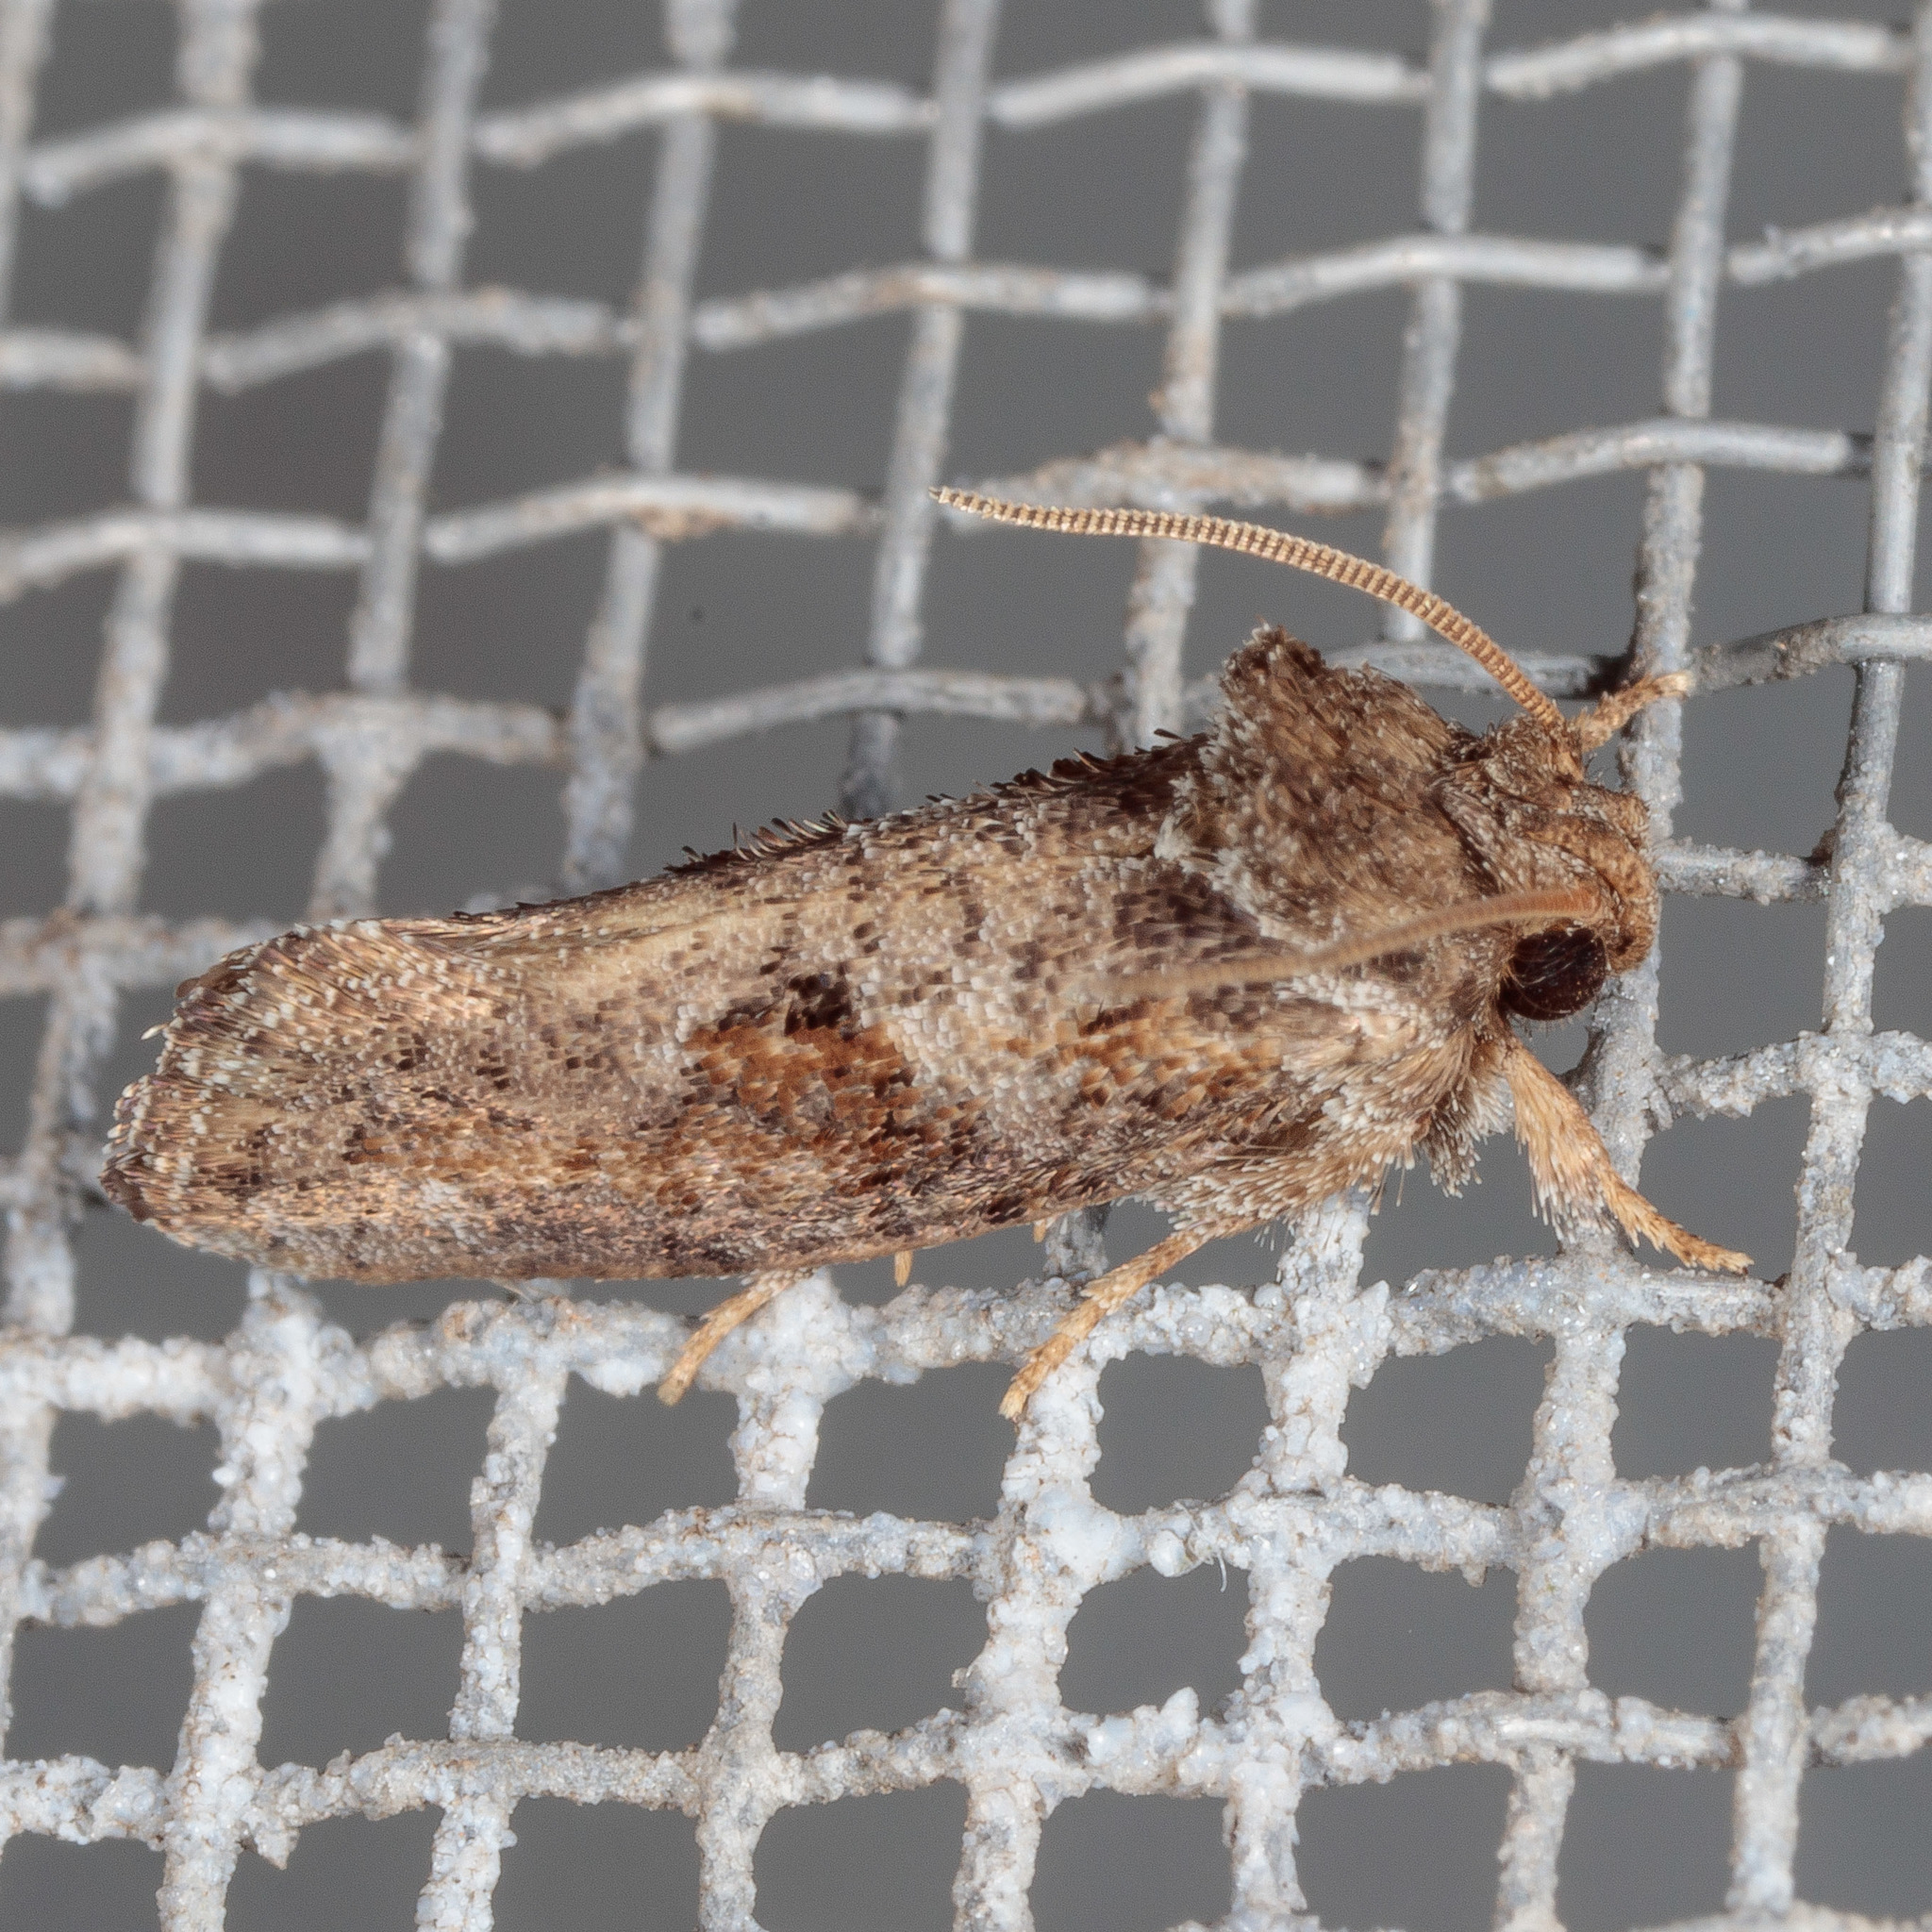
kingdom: Animalia
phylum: Arthropoda
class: Insecta
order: Lepidoptera
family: Tineidae
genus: Acrolophus
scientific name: Acrolophus piger
